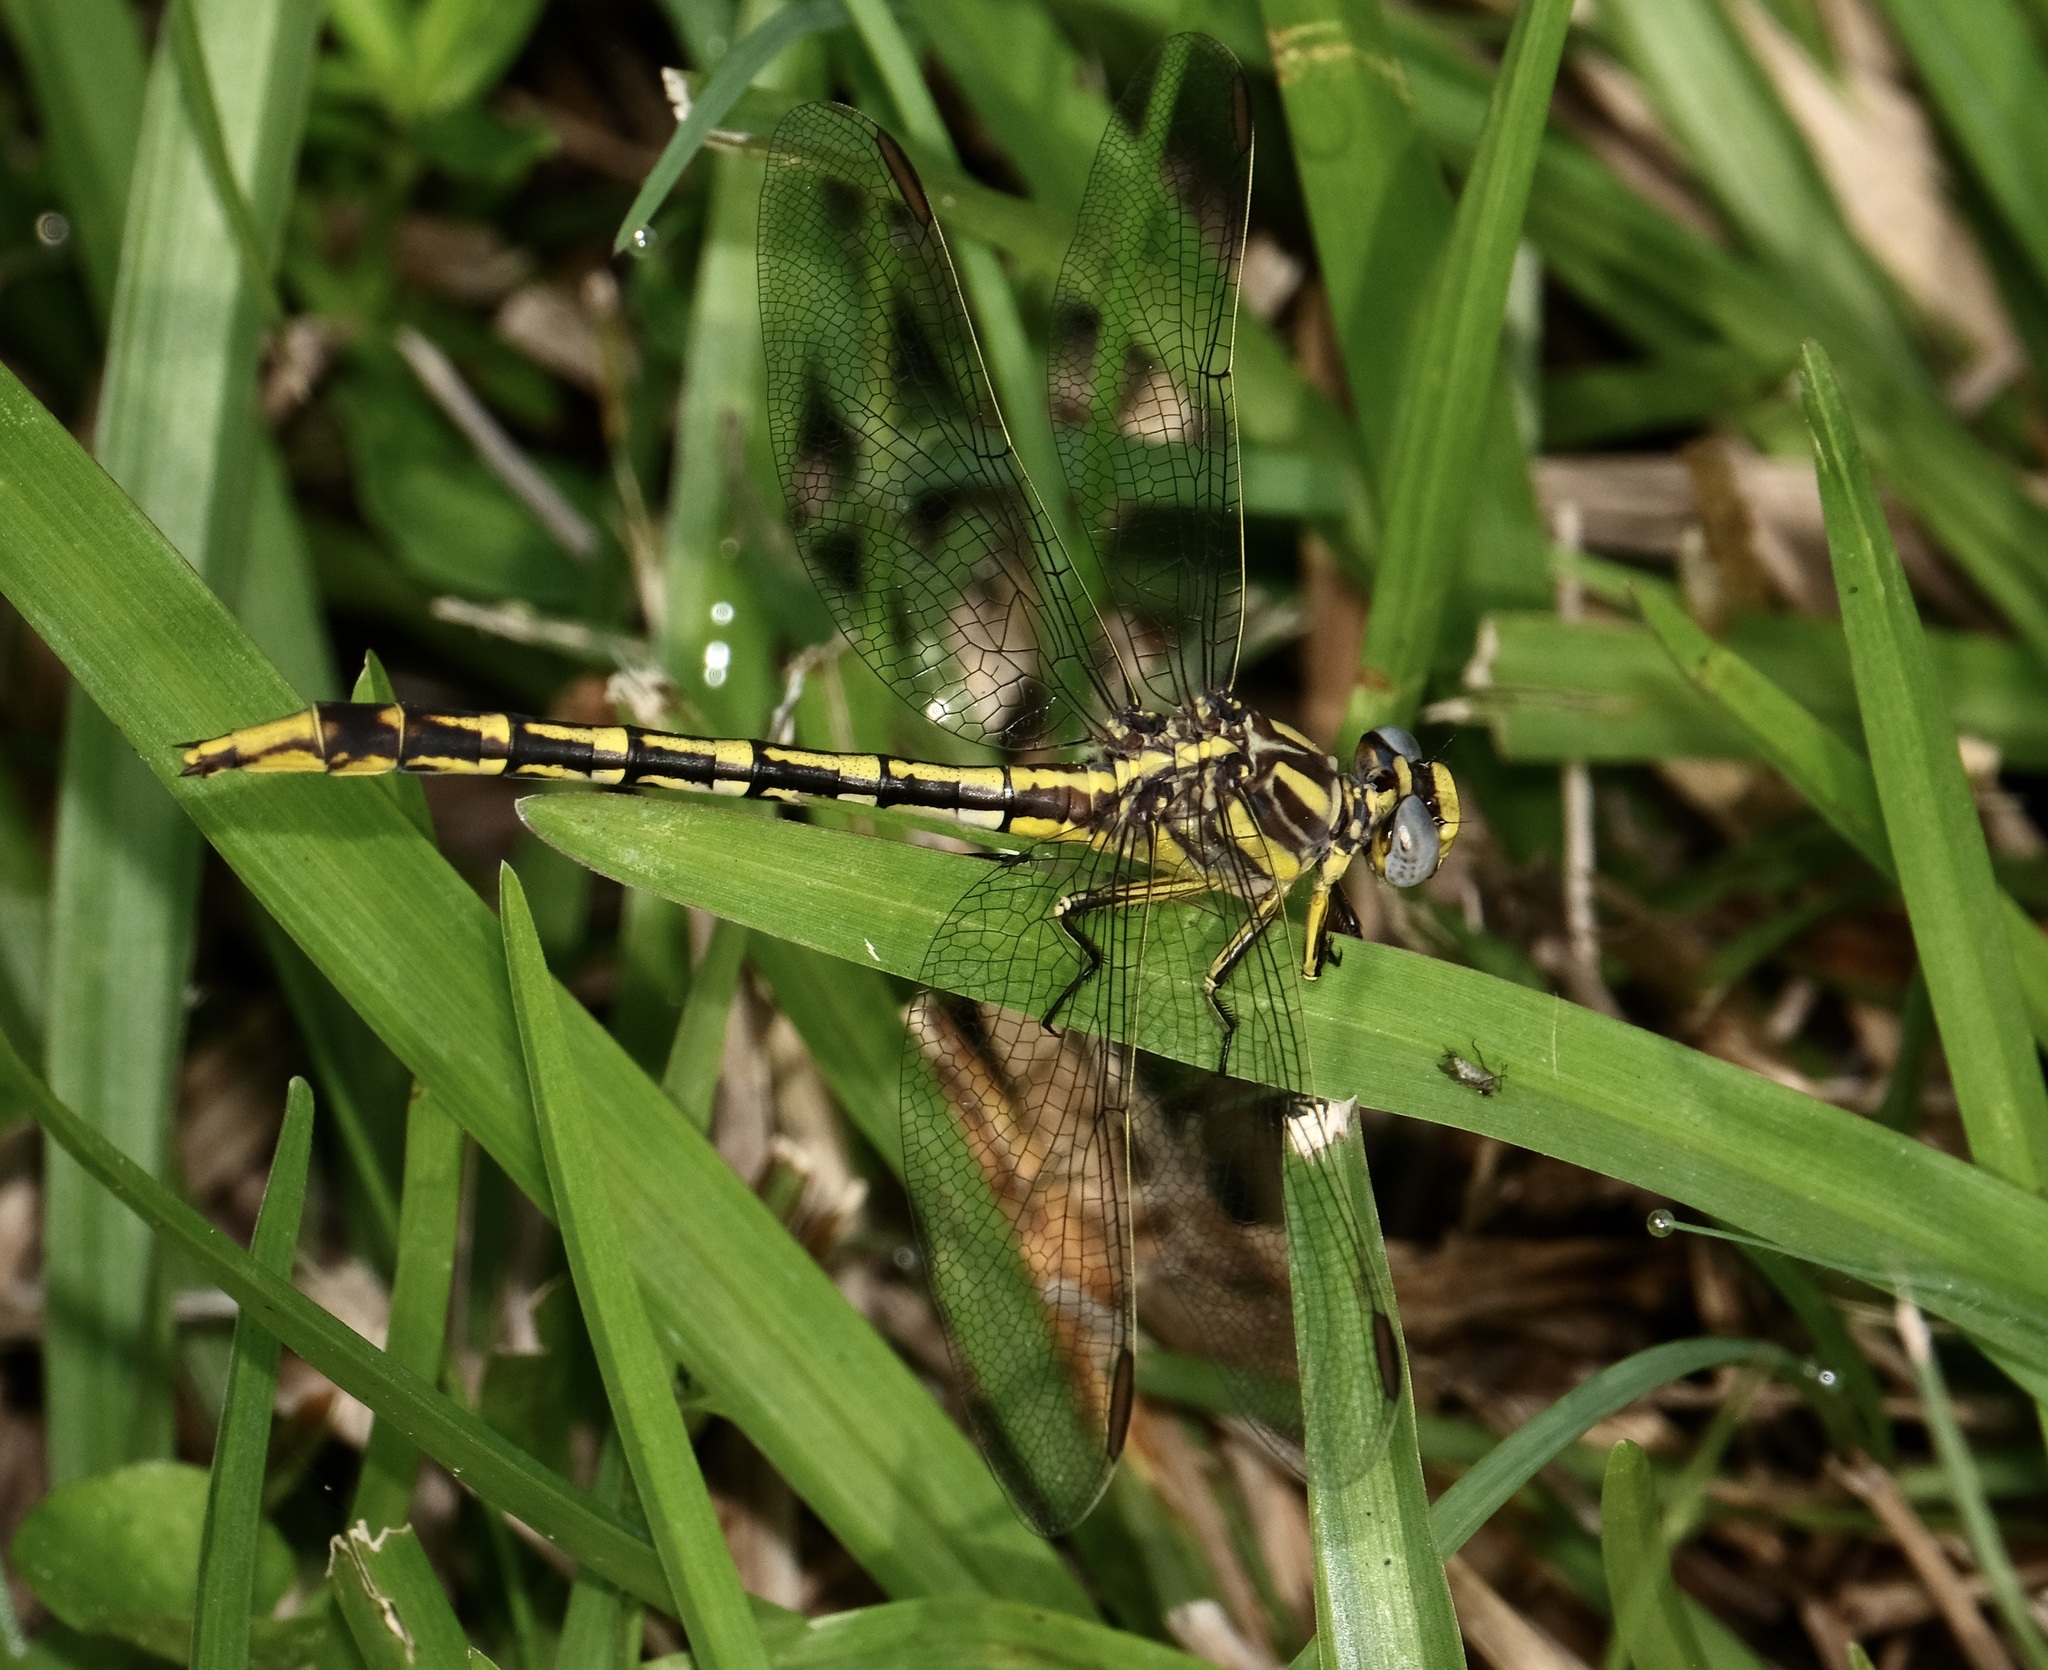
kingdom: Animalia
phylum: Arthropoda
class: Insecta
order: Odonata
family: Gomphidae
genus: Phanogomphus
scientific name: Phanogomphus militaris
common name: Sulphur-tipped clubtail
